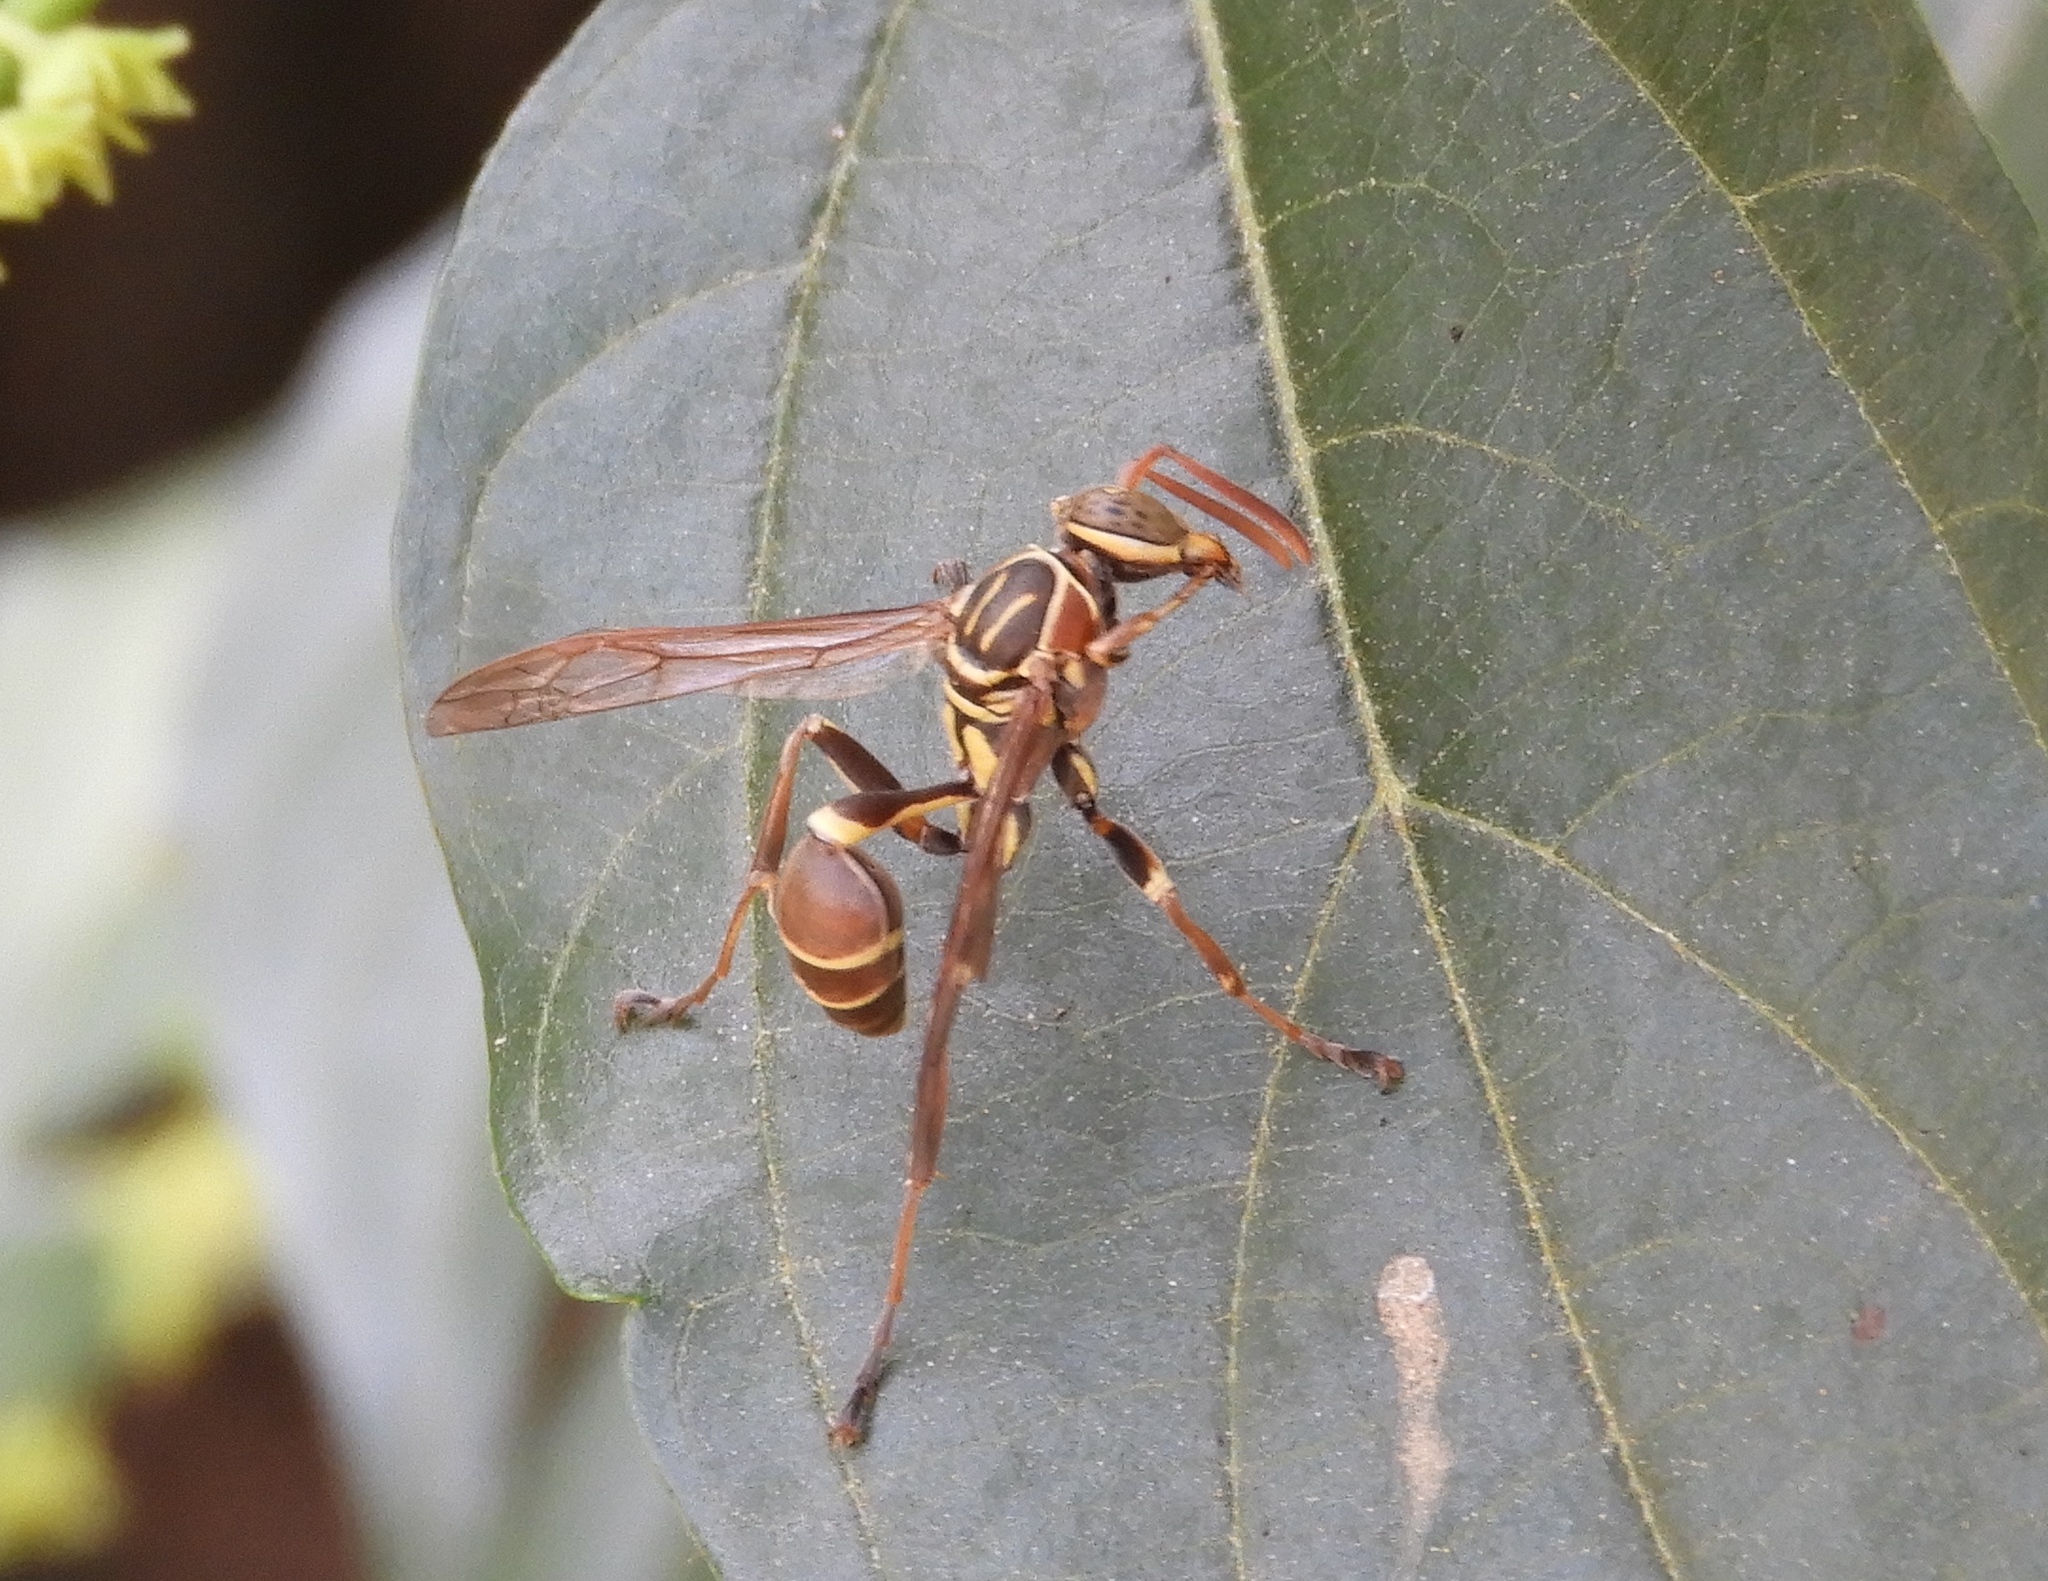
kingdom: Animalia
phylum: Arthropoda
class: Insecta
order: Hymenoptera
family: Vespidae
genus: Mischocyttarus
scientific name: Mischocyttarus mexicanus
